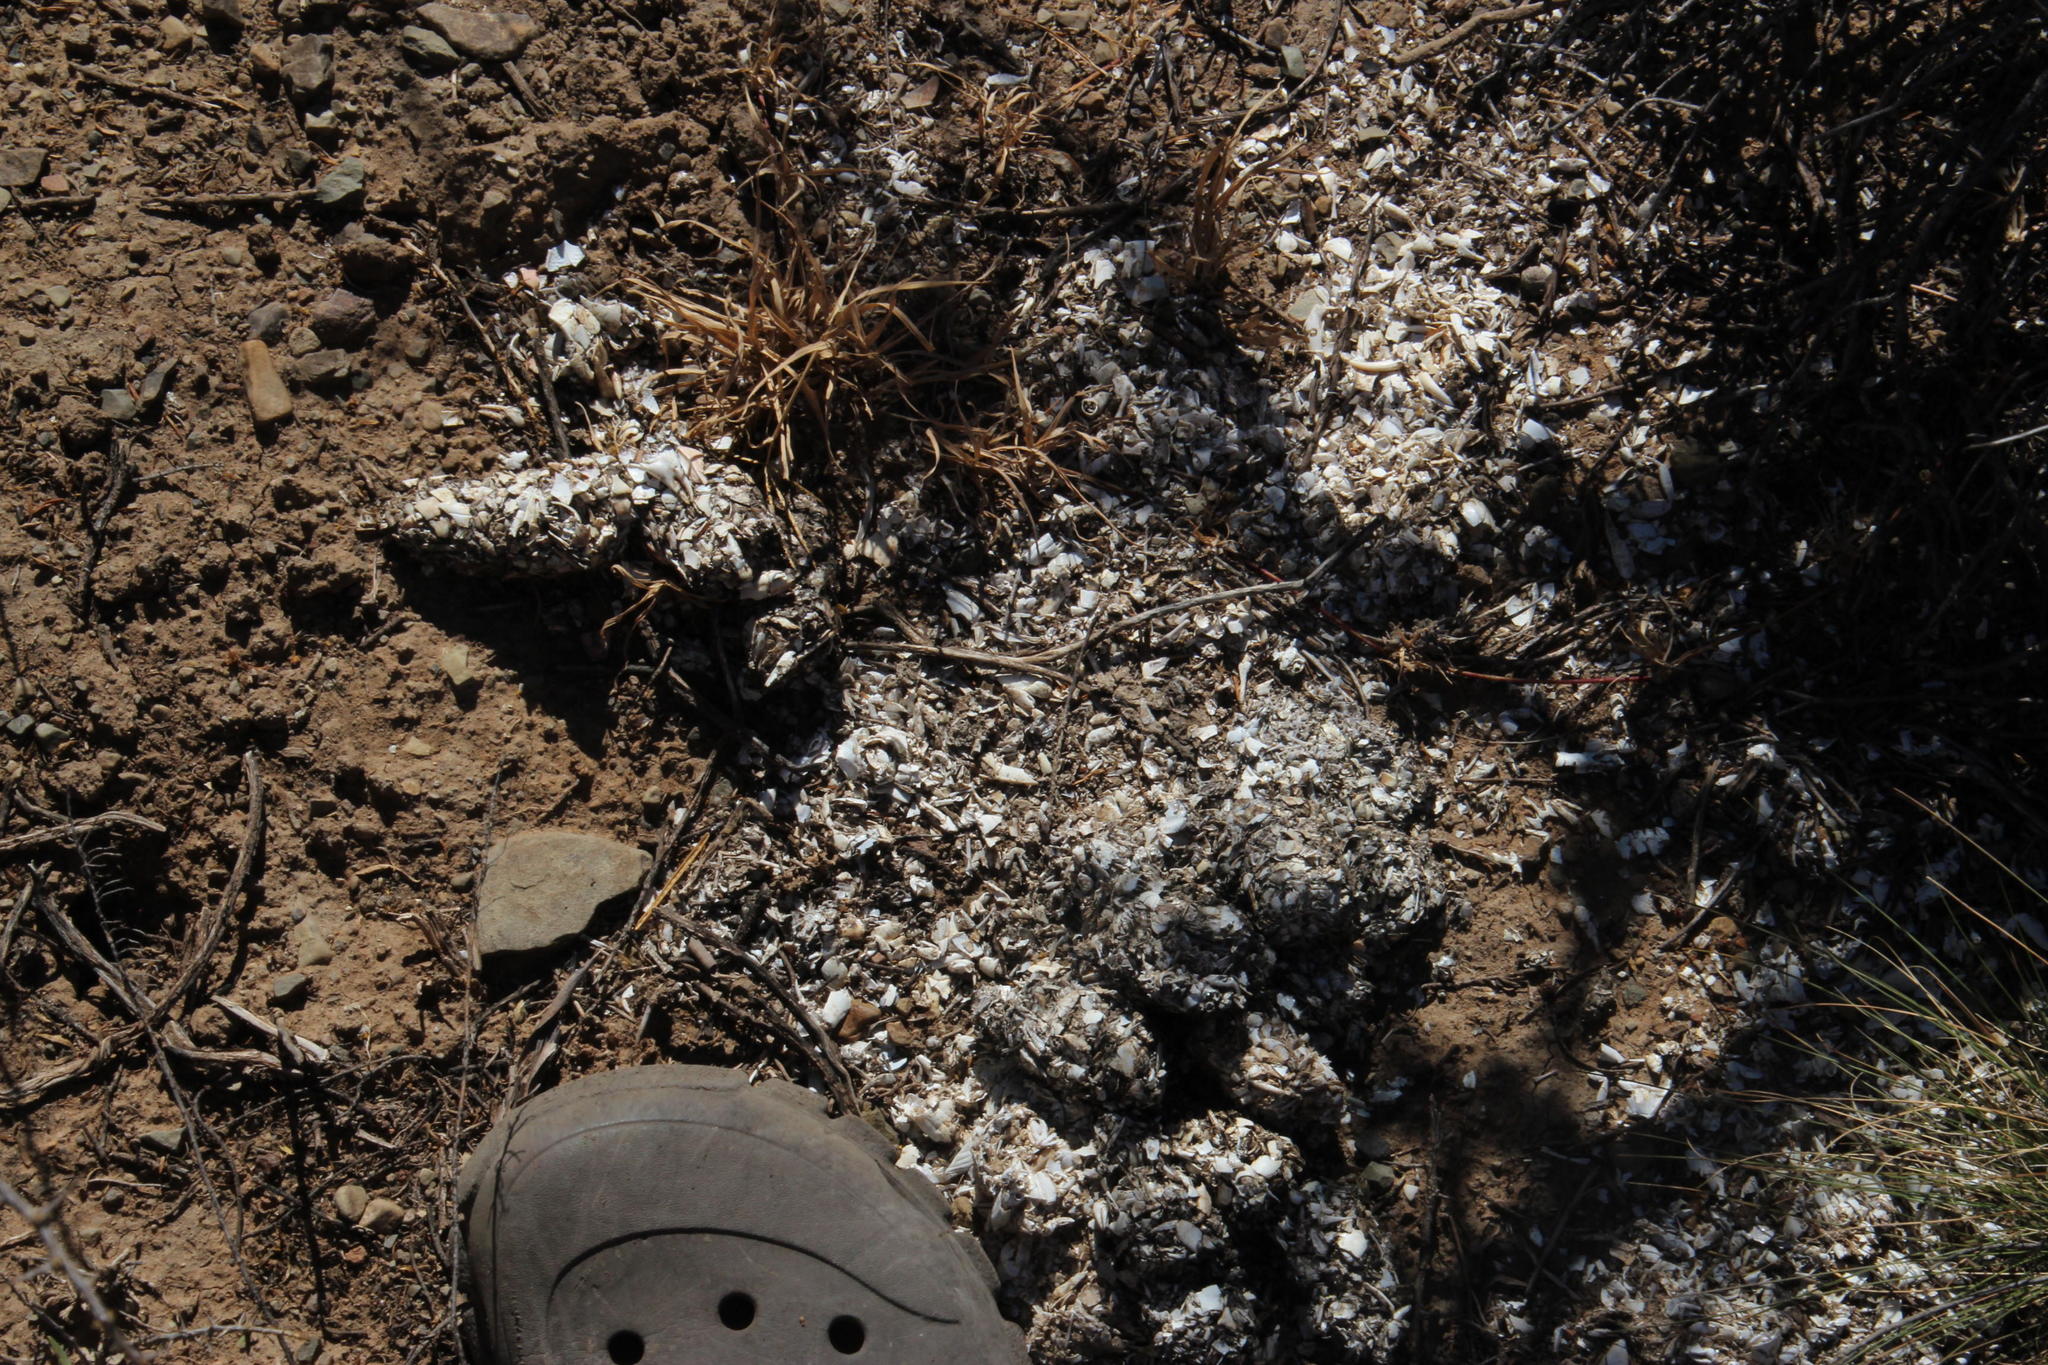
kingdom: Animalia
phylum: Chordata
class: Mammalia
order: Carnivora
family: Mustelidae
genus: Aonyx
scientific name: Aonyx capensis
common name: African clawless otter
